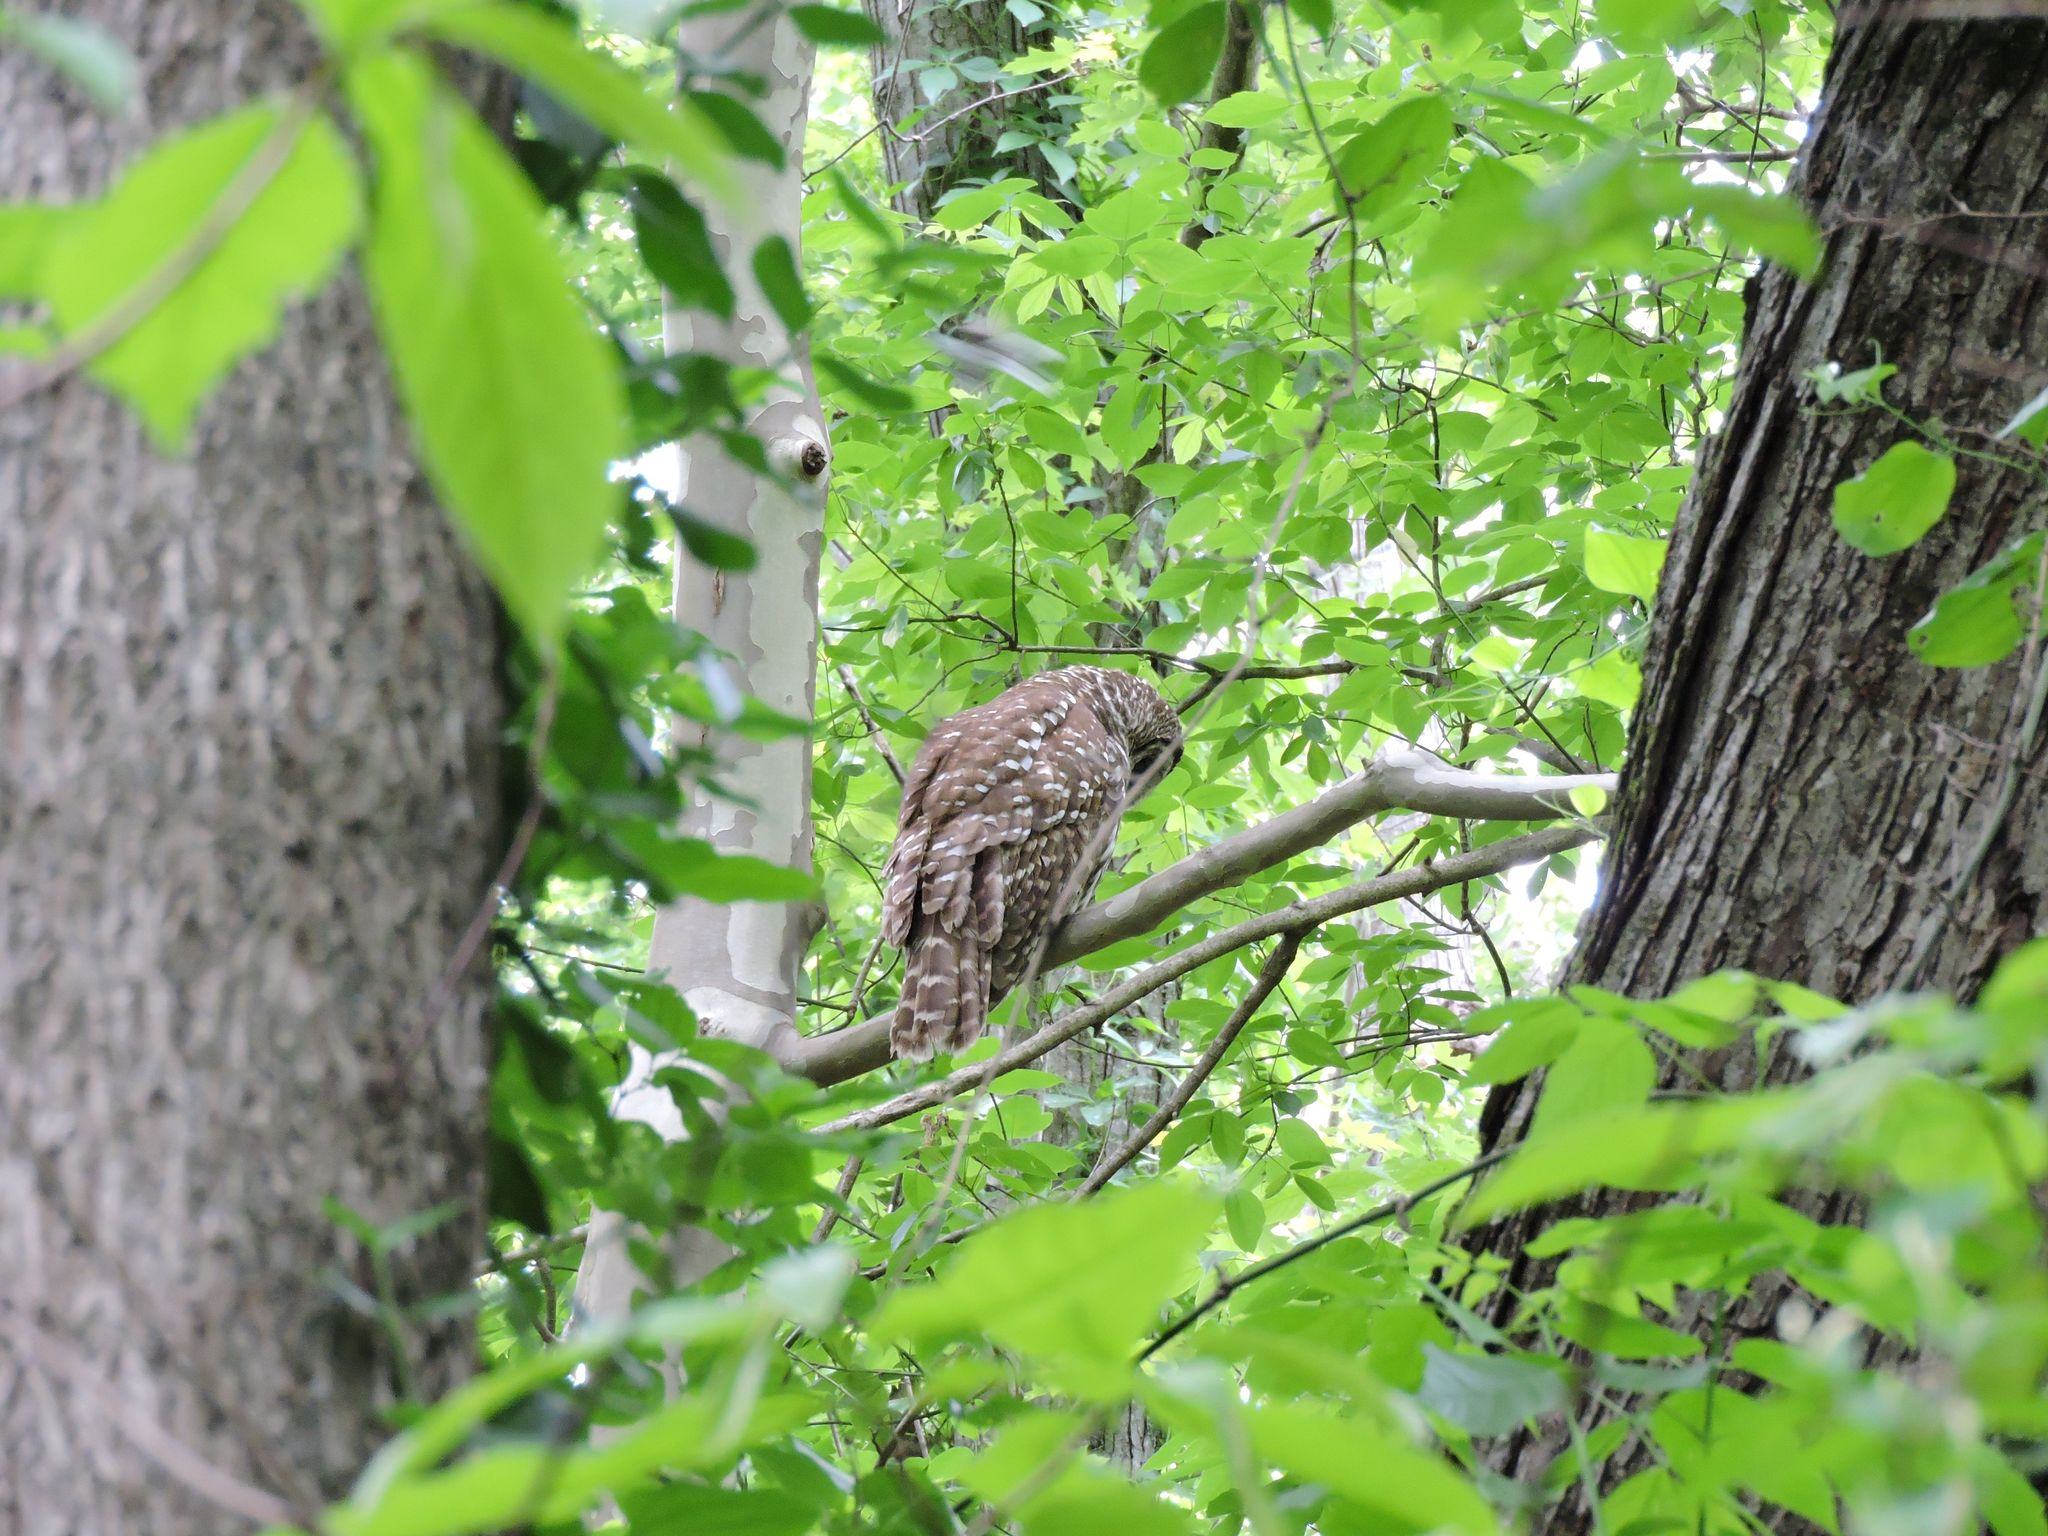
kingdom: Animalia
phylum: Chordata
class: Aves
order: Strigiformes
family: Strigidae
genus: Strix
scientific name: Strix varia
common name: Barred owl
